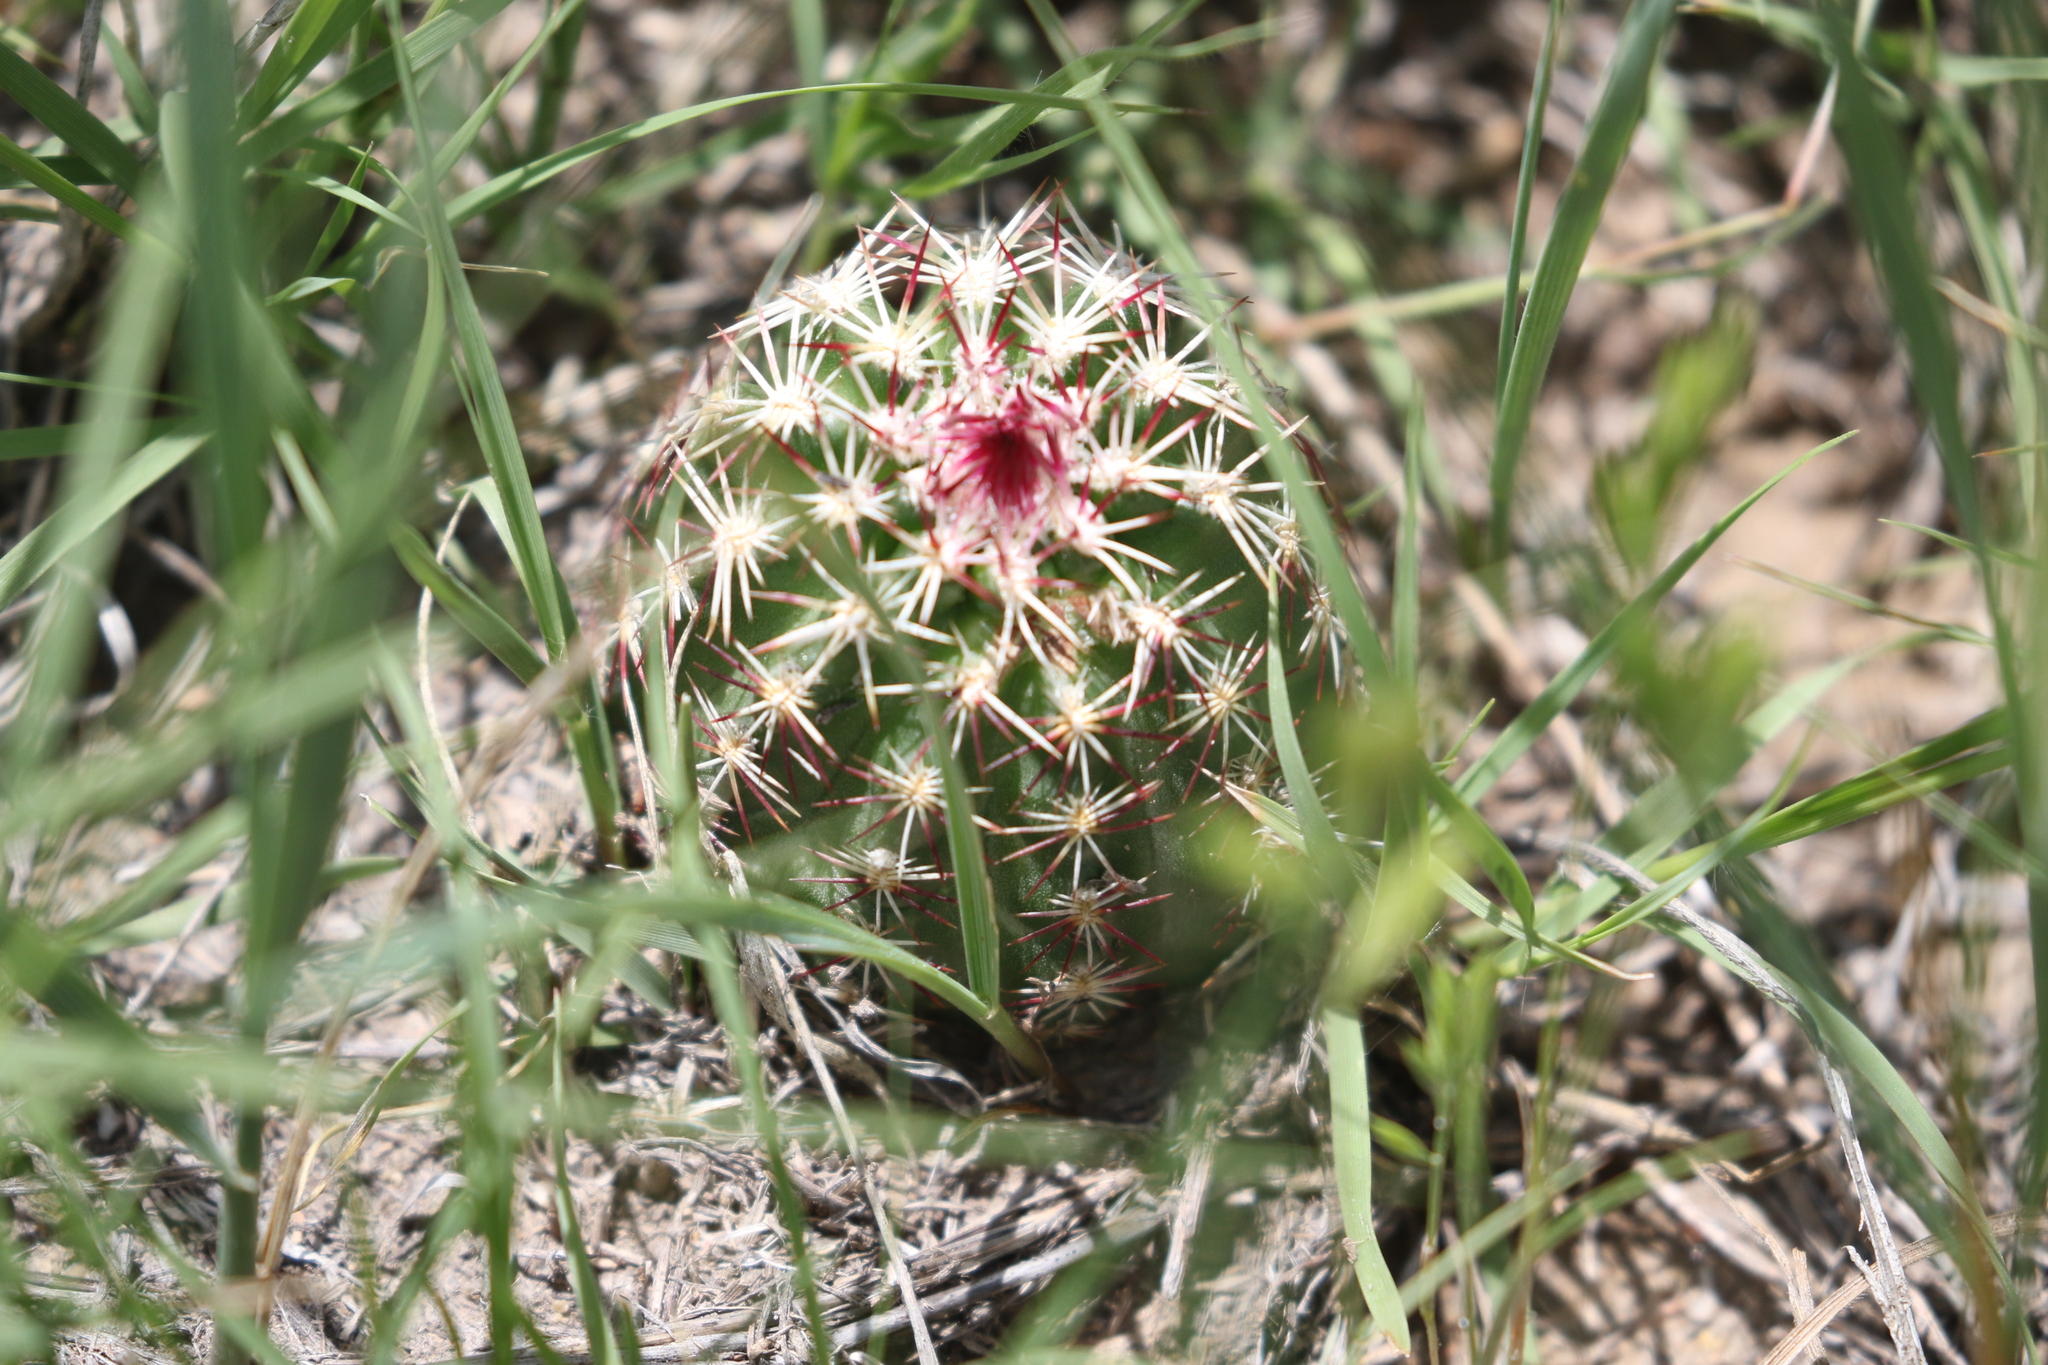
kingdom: Plantae
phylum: Tracheophyta
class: Magnoliopsida
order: Caryophyllales
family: Cactaceae
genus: Echinocereus
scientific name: Echinocereus viridiflorus
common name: Nylon hedgehog cactus
